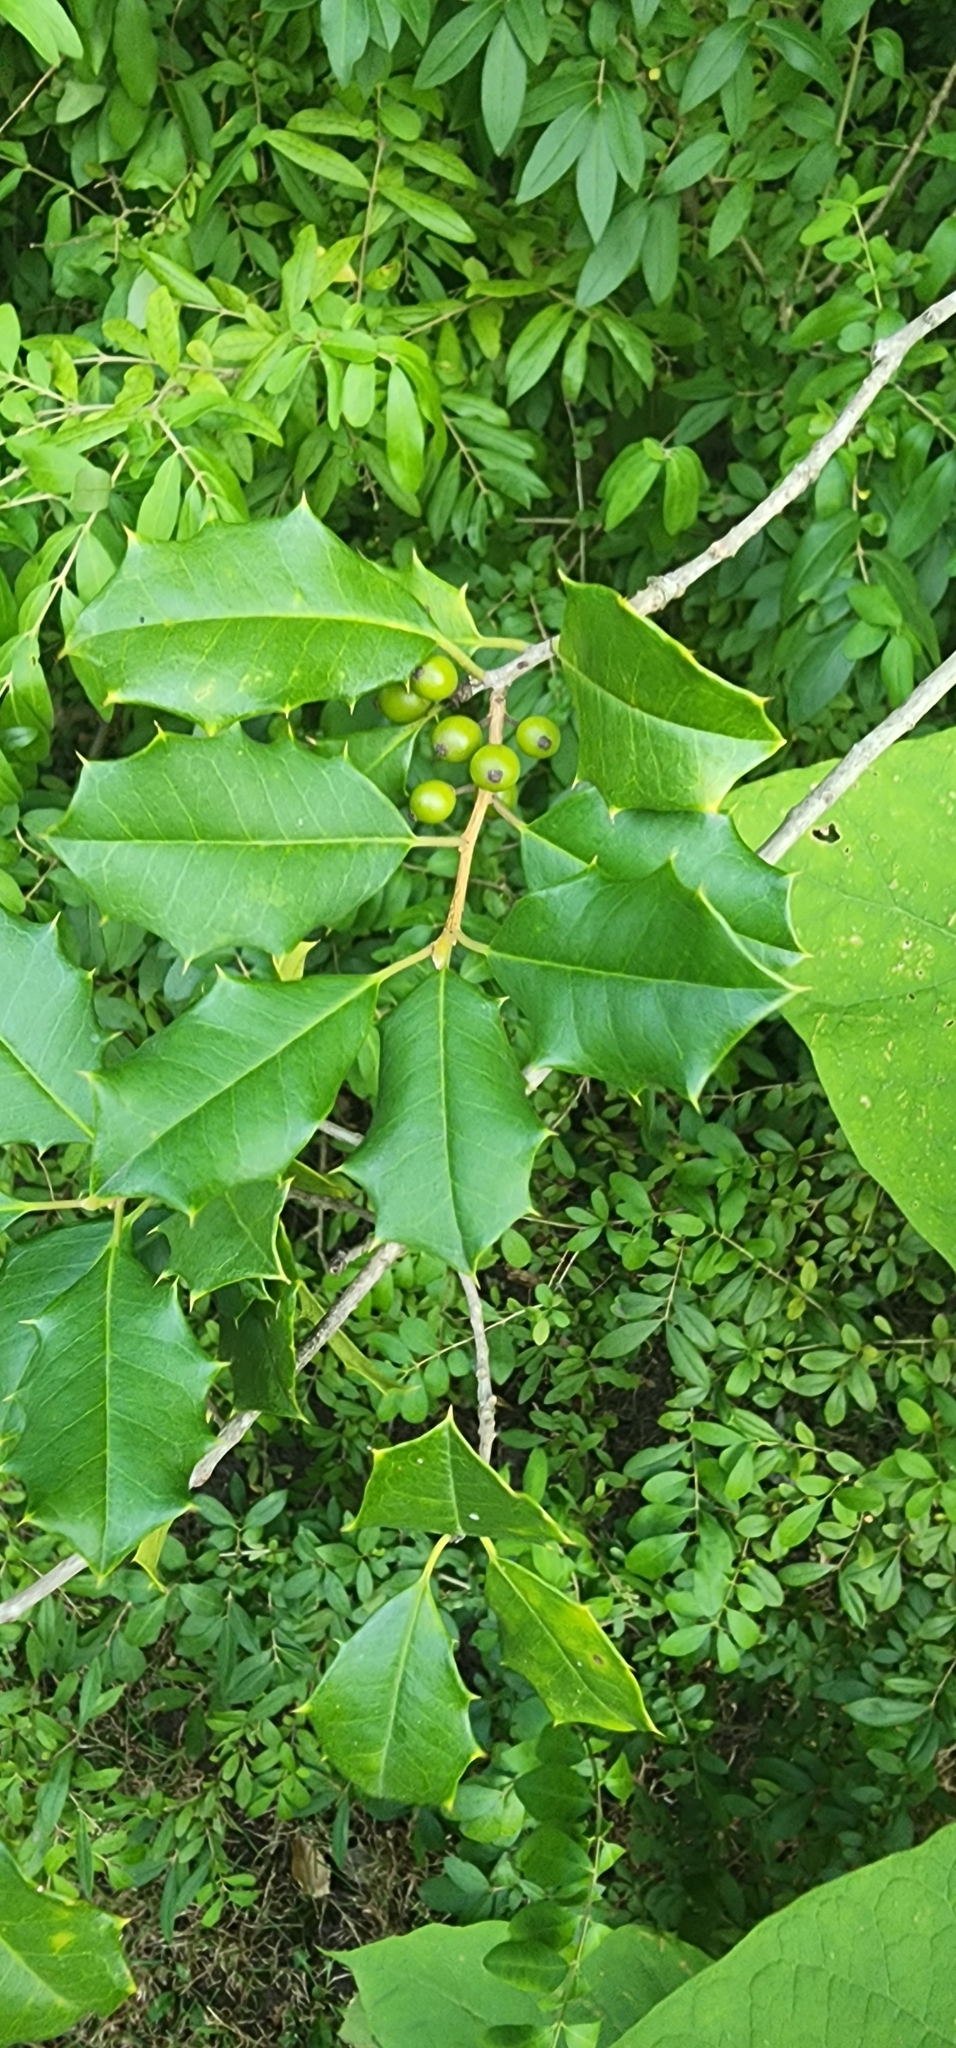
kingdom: Plantae
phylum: Tracheophyta
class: Magnoliopsida
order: Aquifoliales
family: Aquifoliaceae
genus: Ilex
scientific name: Ilex opaca
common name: American holly
